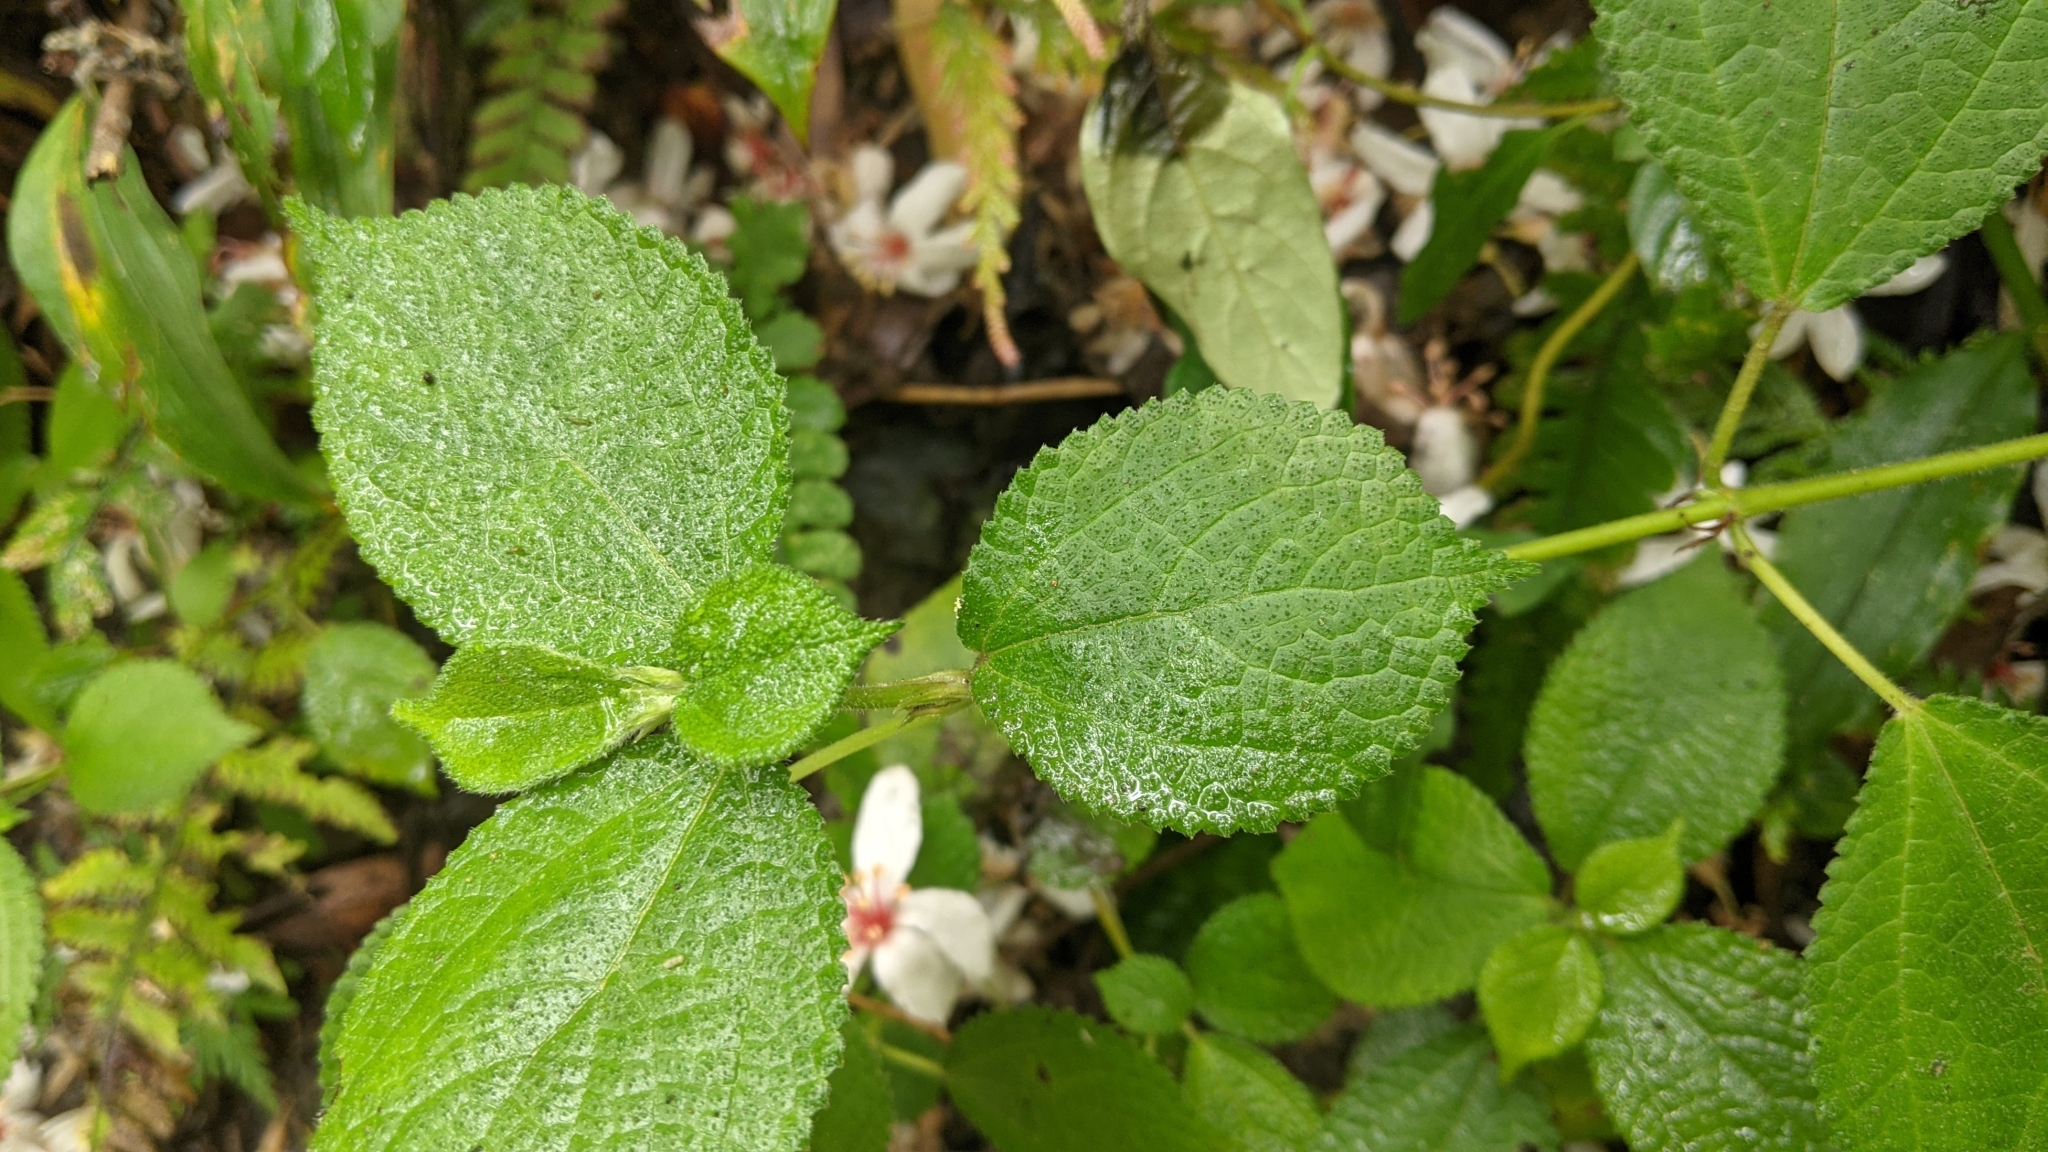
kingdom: Plantae
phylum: Tracheophyta
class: Magnoliopsida
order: Rosales
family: Urticaceae
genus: Boehmeria
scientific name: Boehmeria pilosiuscula
